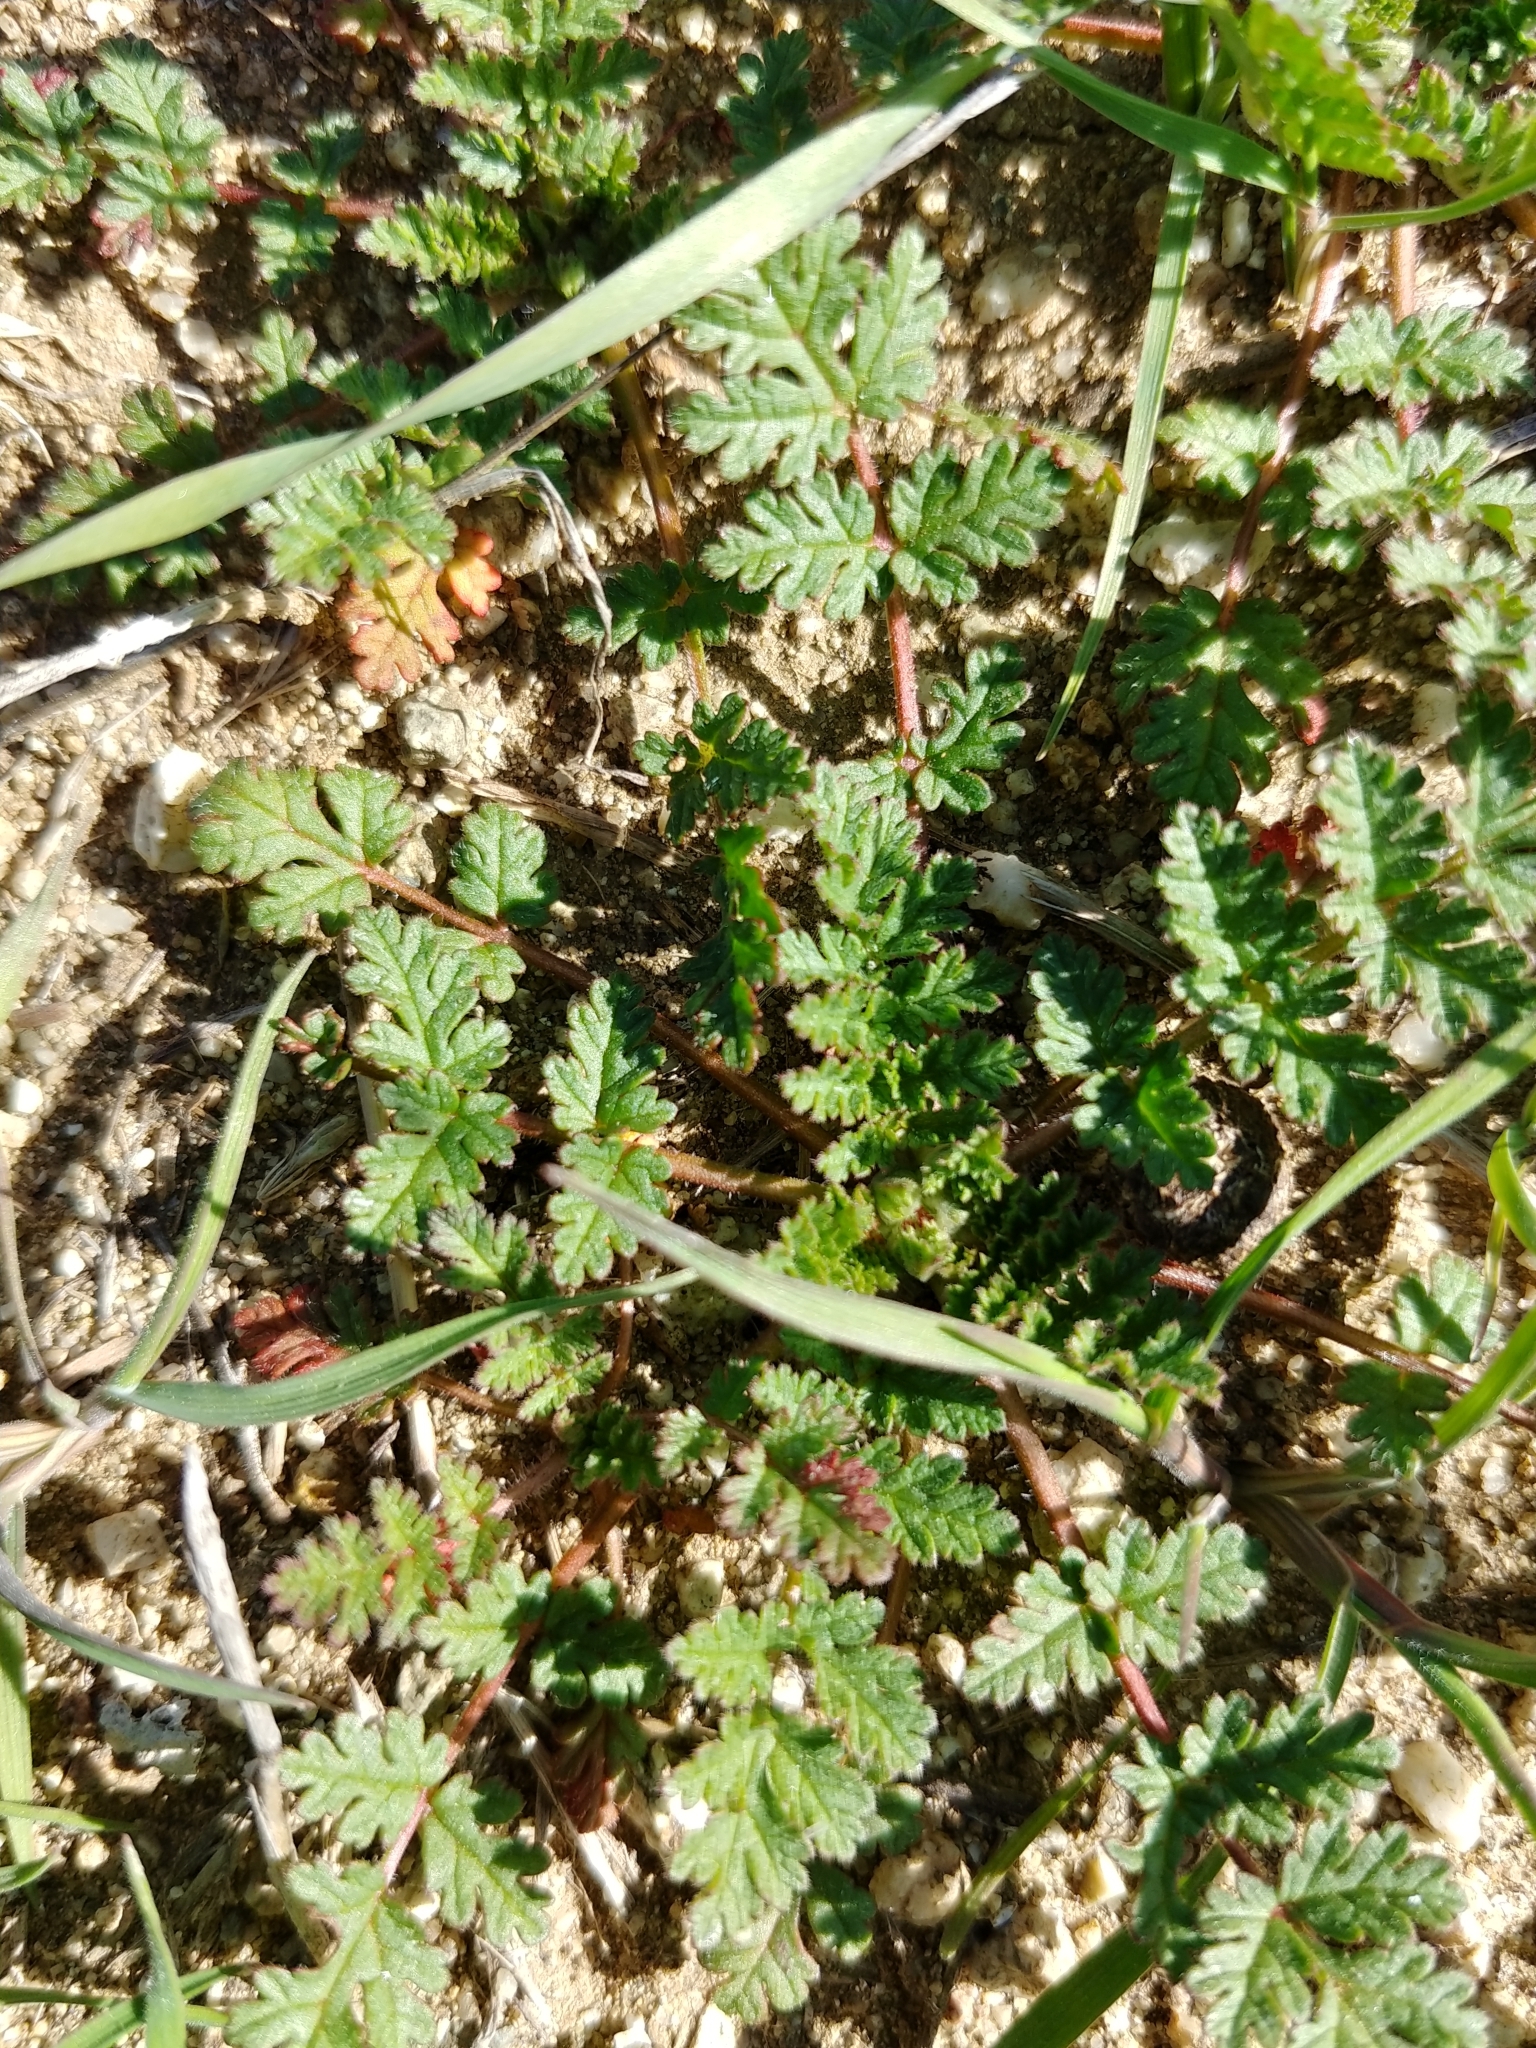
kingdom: Plantae
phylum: Tracheophyta
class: Magnoliopsida
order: Geraniales
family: Geraniaceae
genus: Erodium
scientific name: Erodium cicutarium
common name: Common stork's-bill
